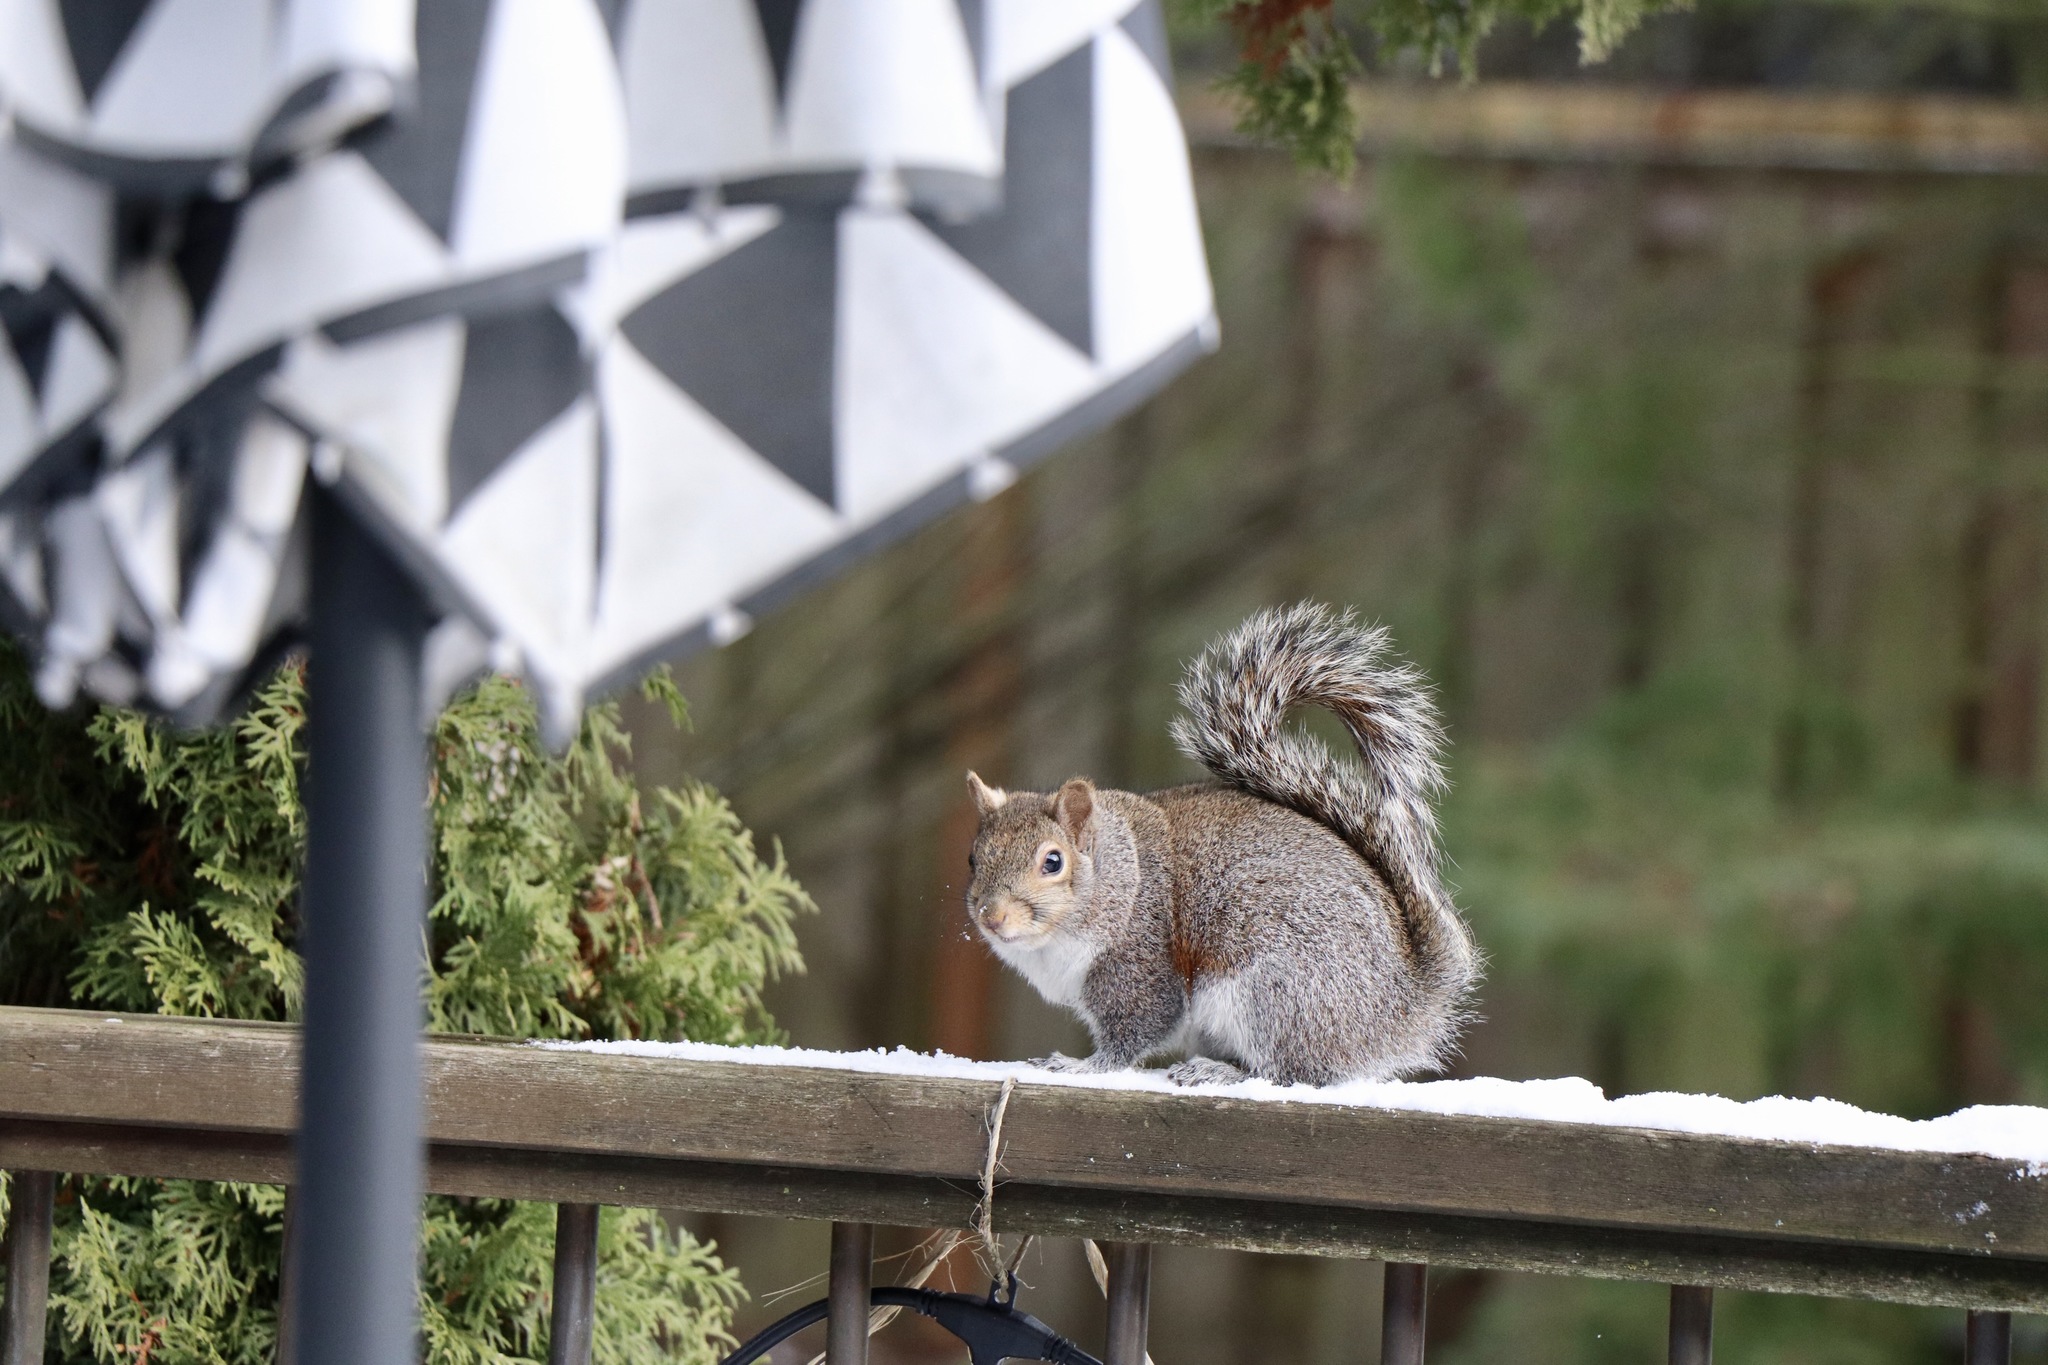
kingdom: Animalia
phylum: Chordata
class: Mammalia
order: Rodentia
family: Sciuridae
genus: Sciurus
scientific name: Sciurus carolinensis
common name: Eastern gray squirrel
